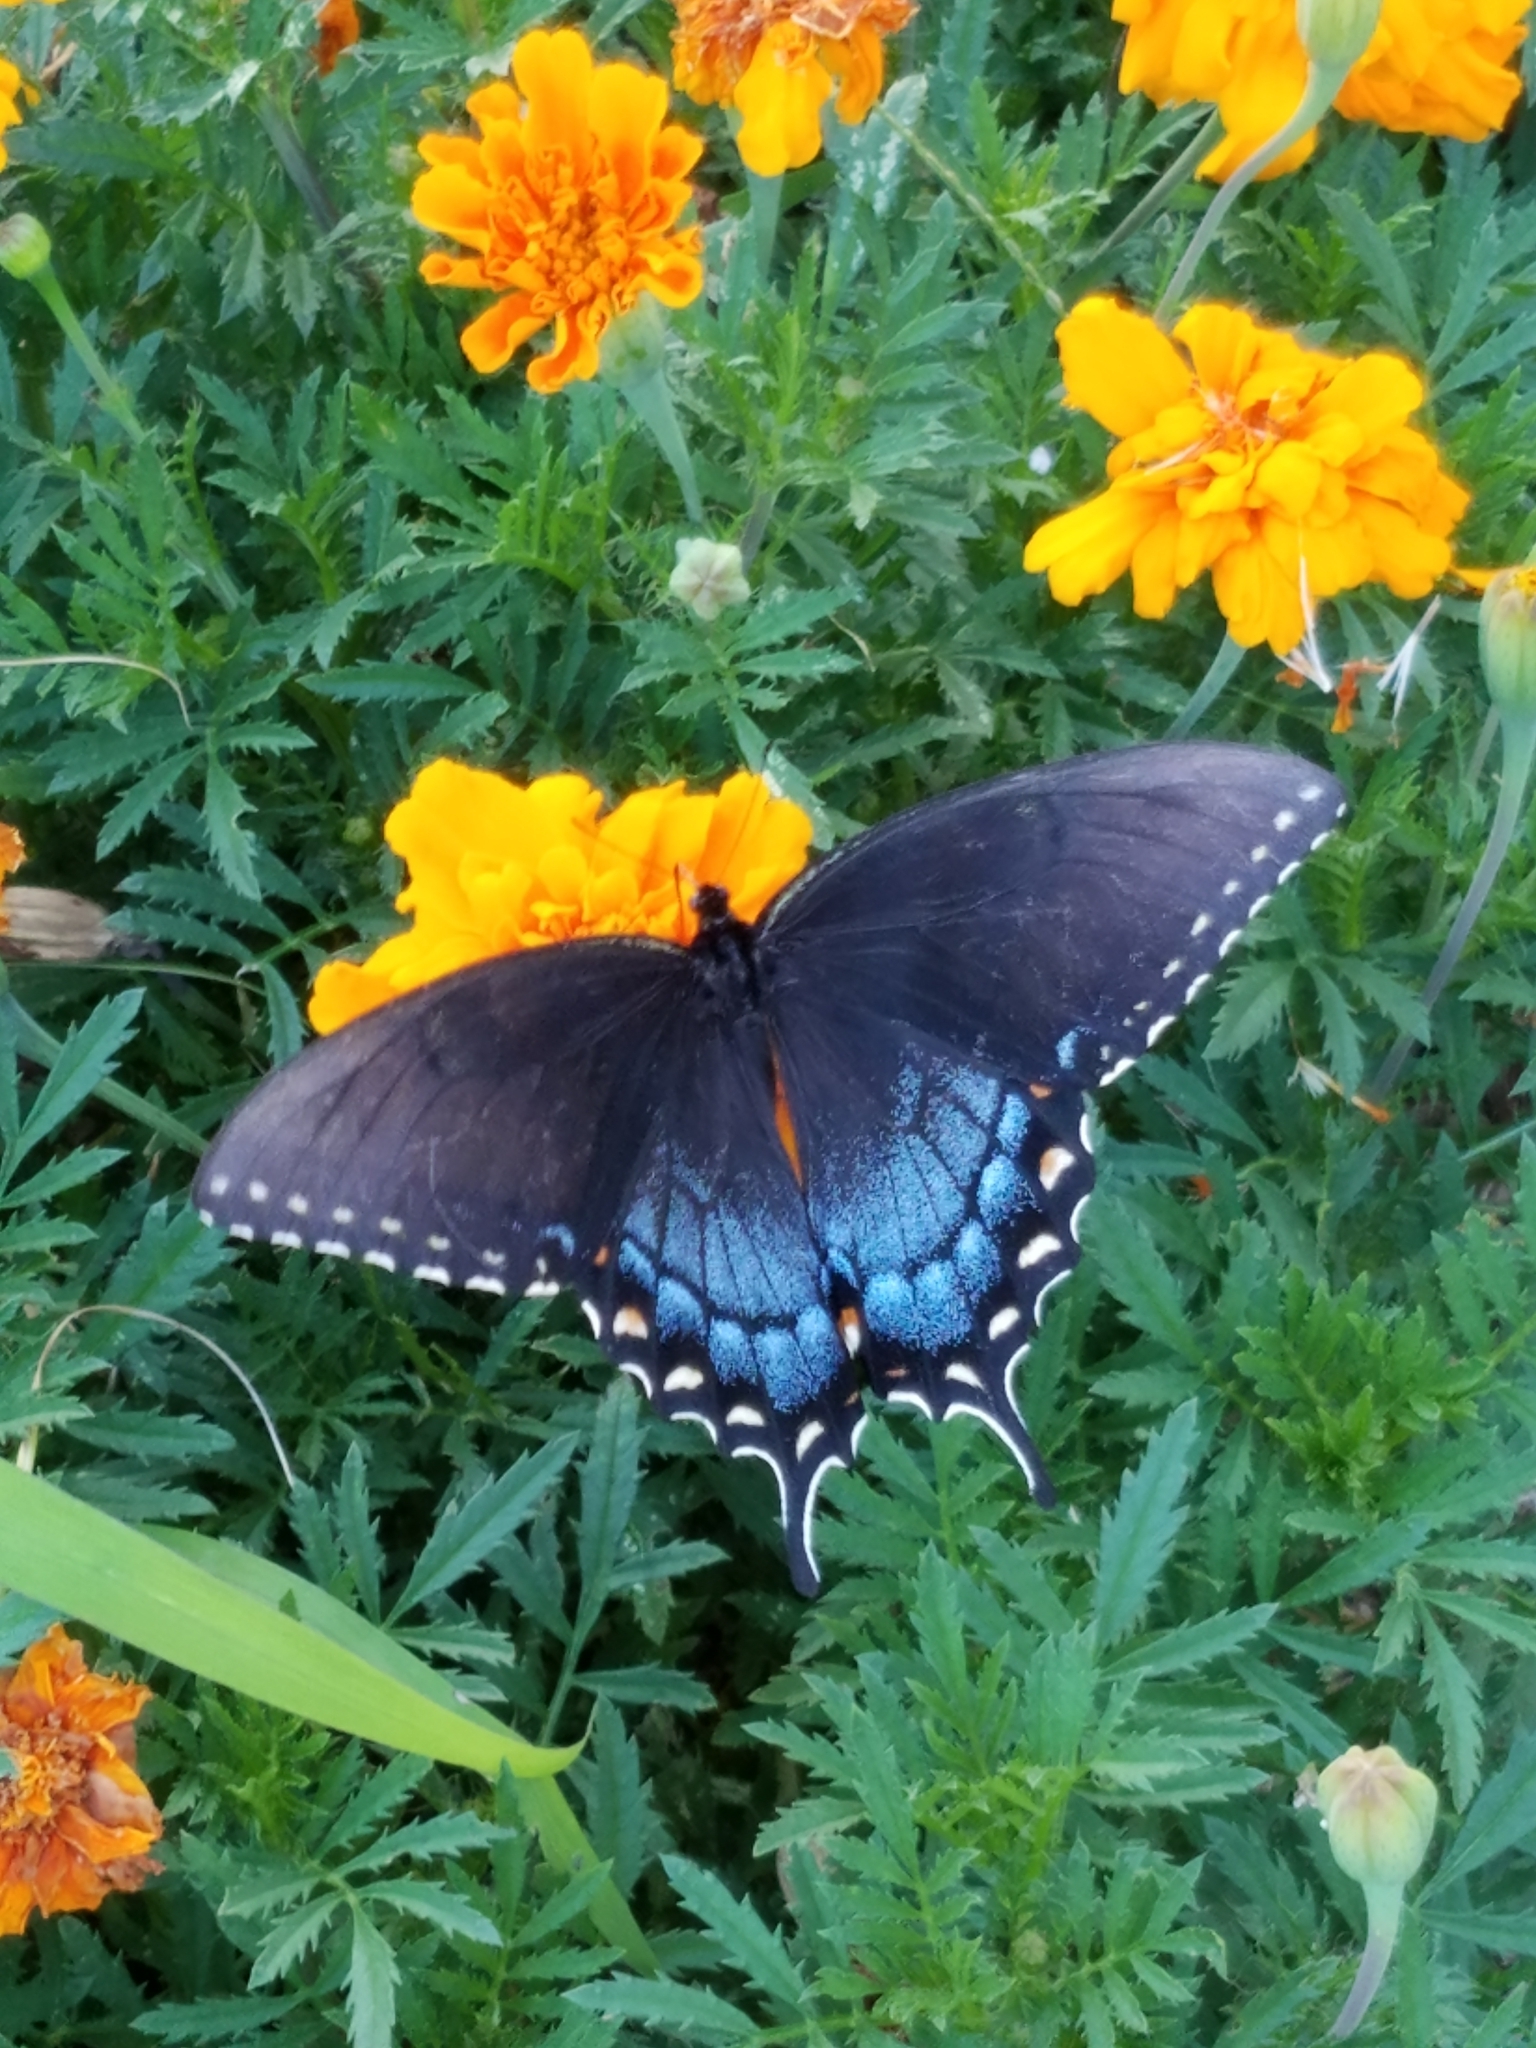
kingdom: Animalia
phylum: Arthropoda
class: Insecta
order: Lepidoptera
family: Papilionidae
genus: Papilio
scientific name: Papilio glaucus
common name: Tiger swallowtail
